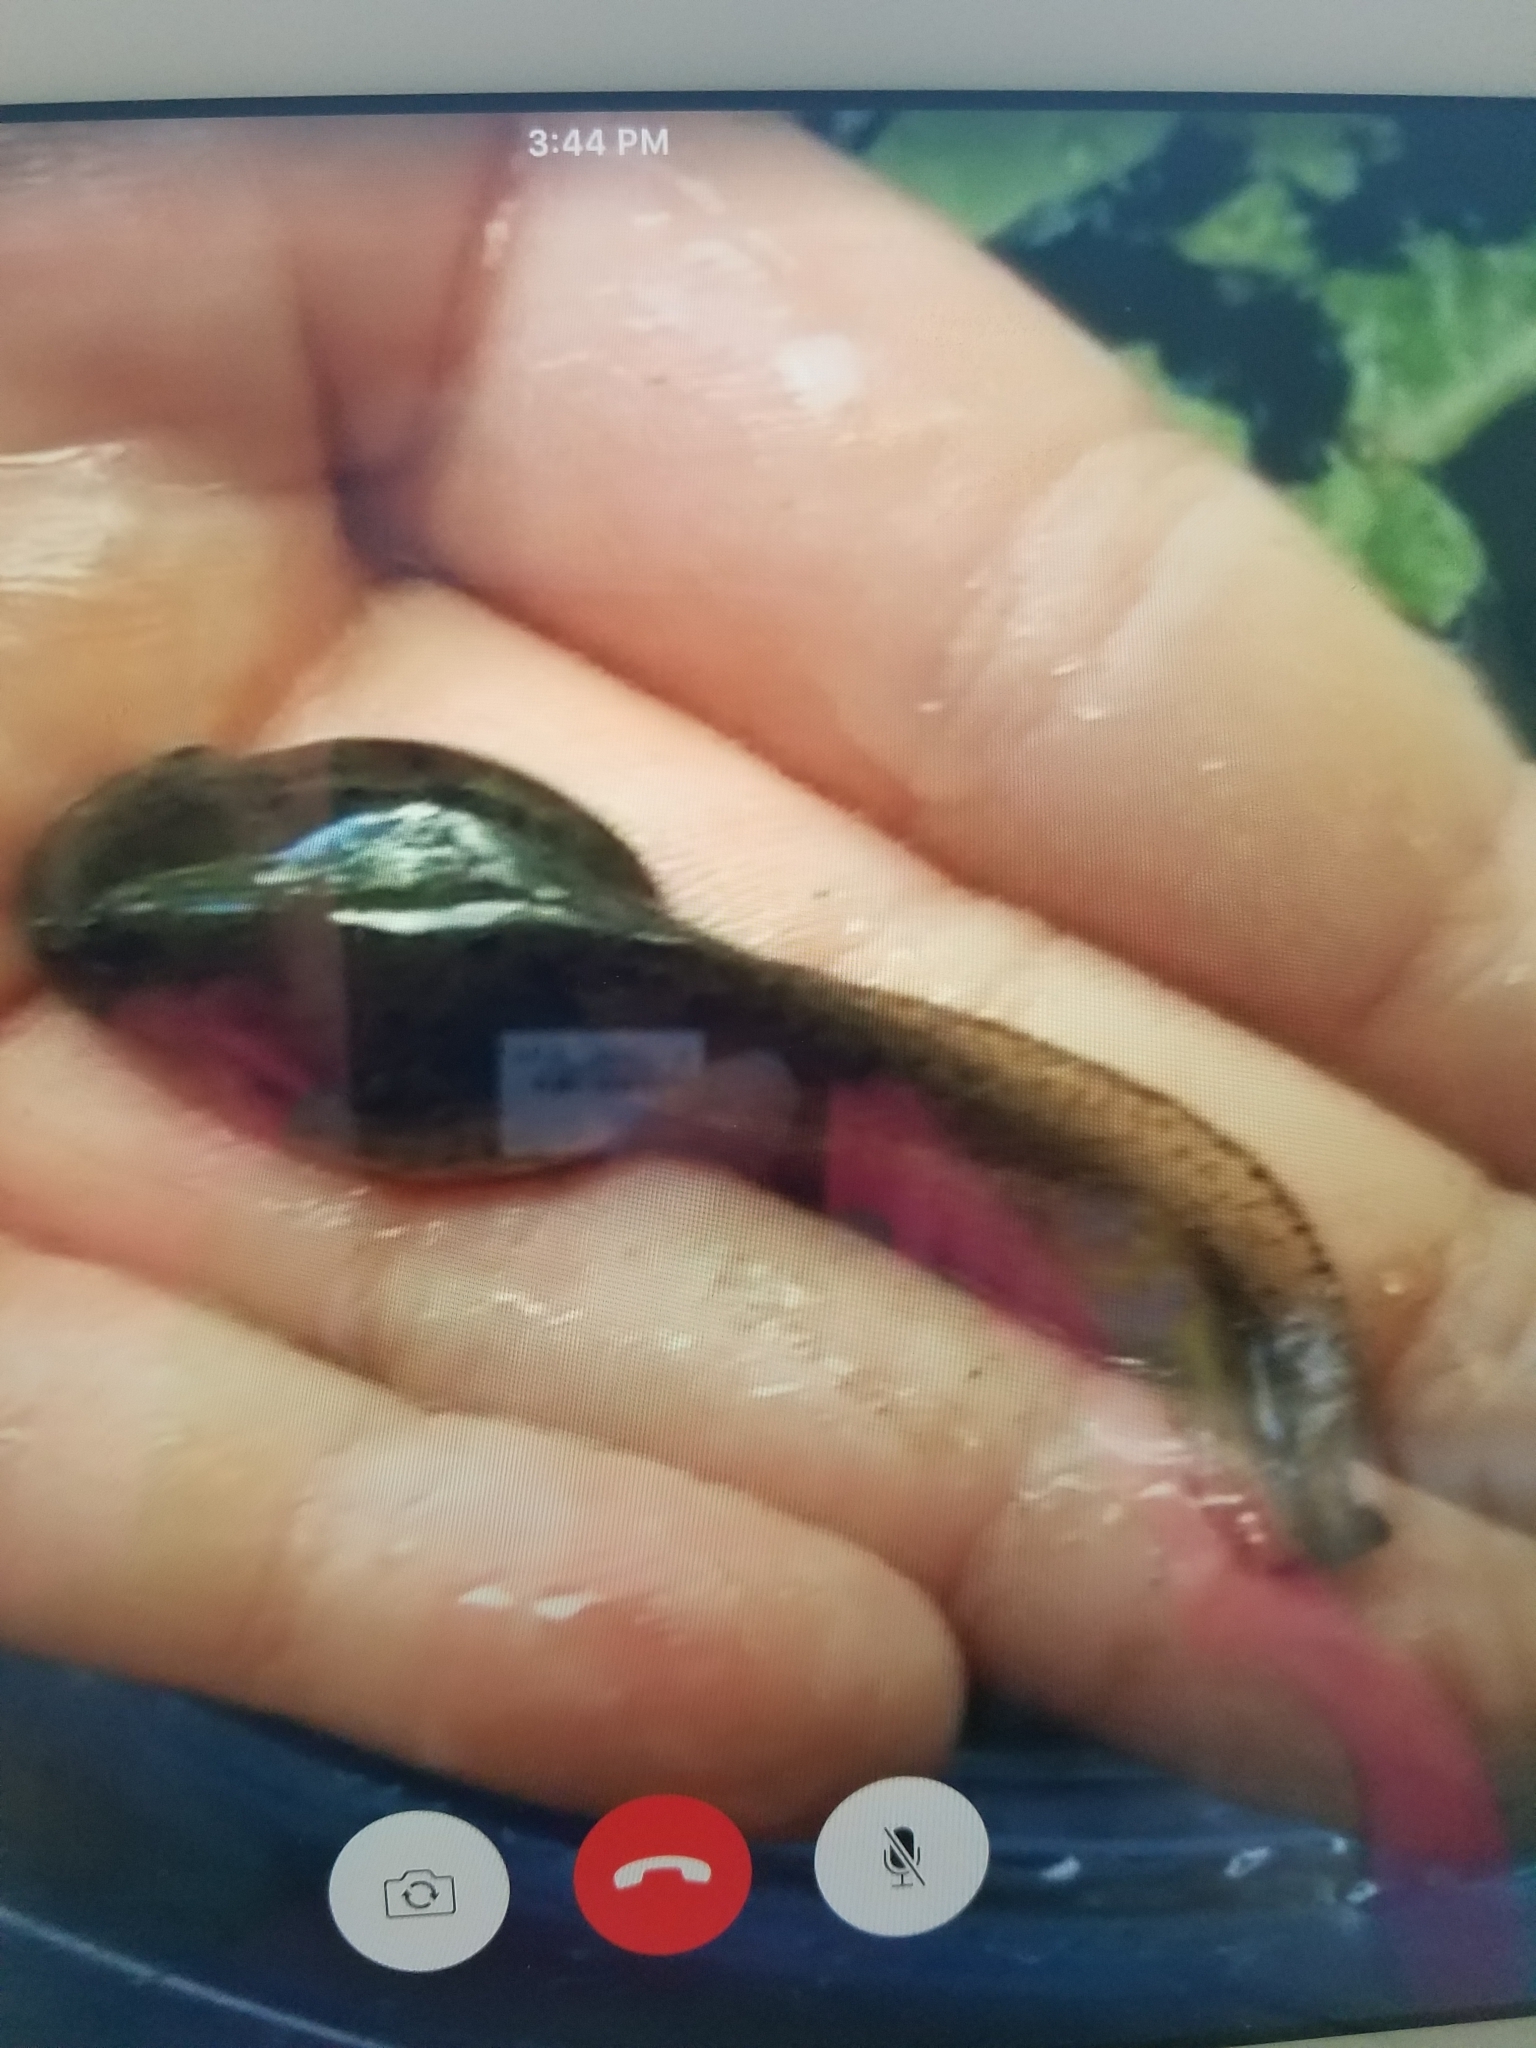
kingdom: Animalia
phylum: Chordata
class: Amphibia
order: Anura
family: Ranidae
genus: Lithobates
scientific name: Lithobates catesbeianus
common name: American bullfrog
